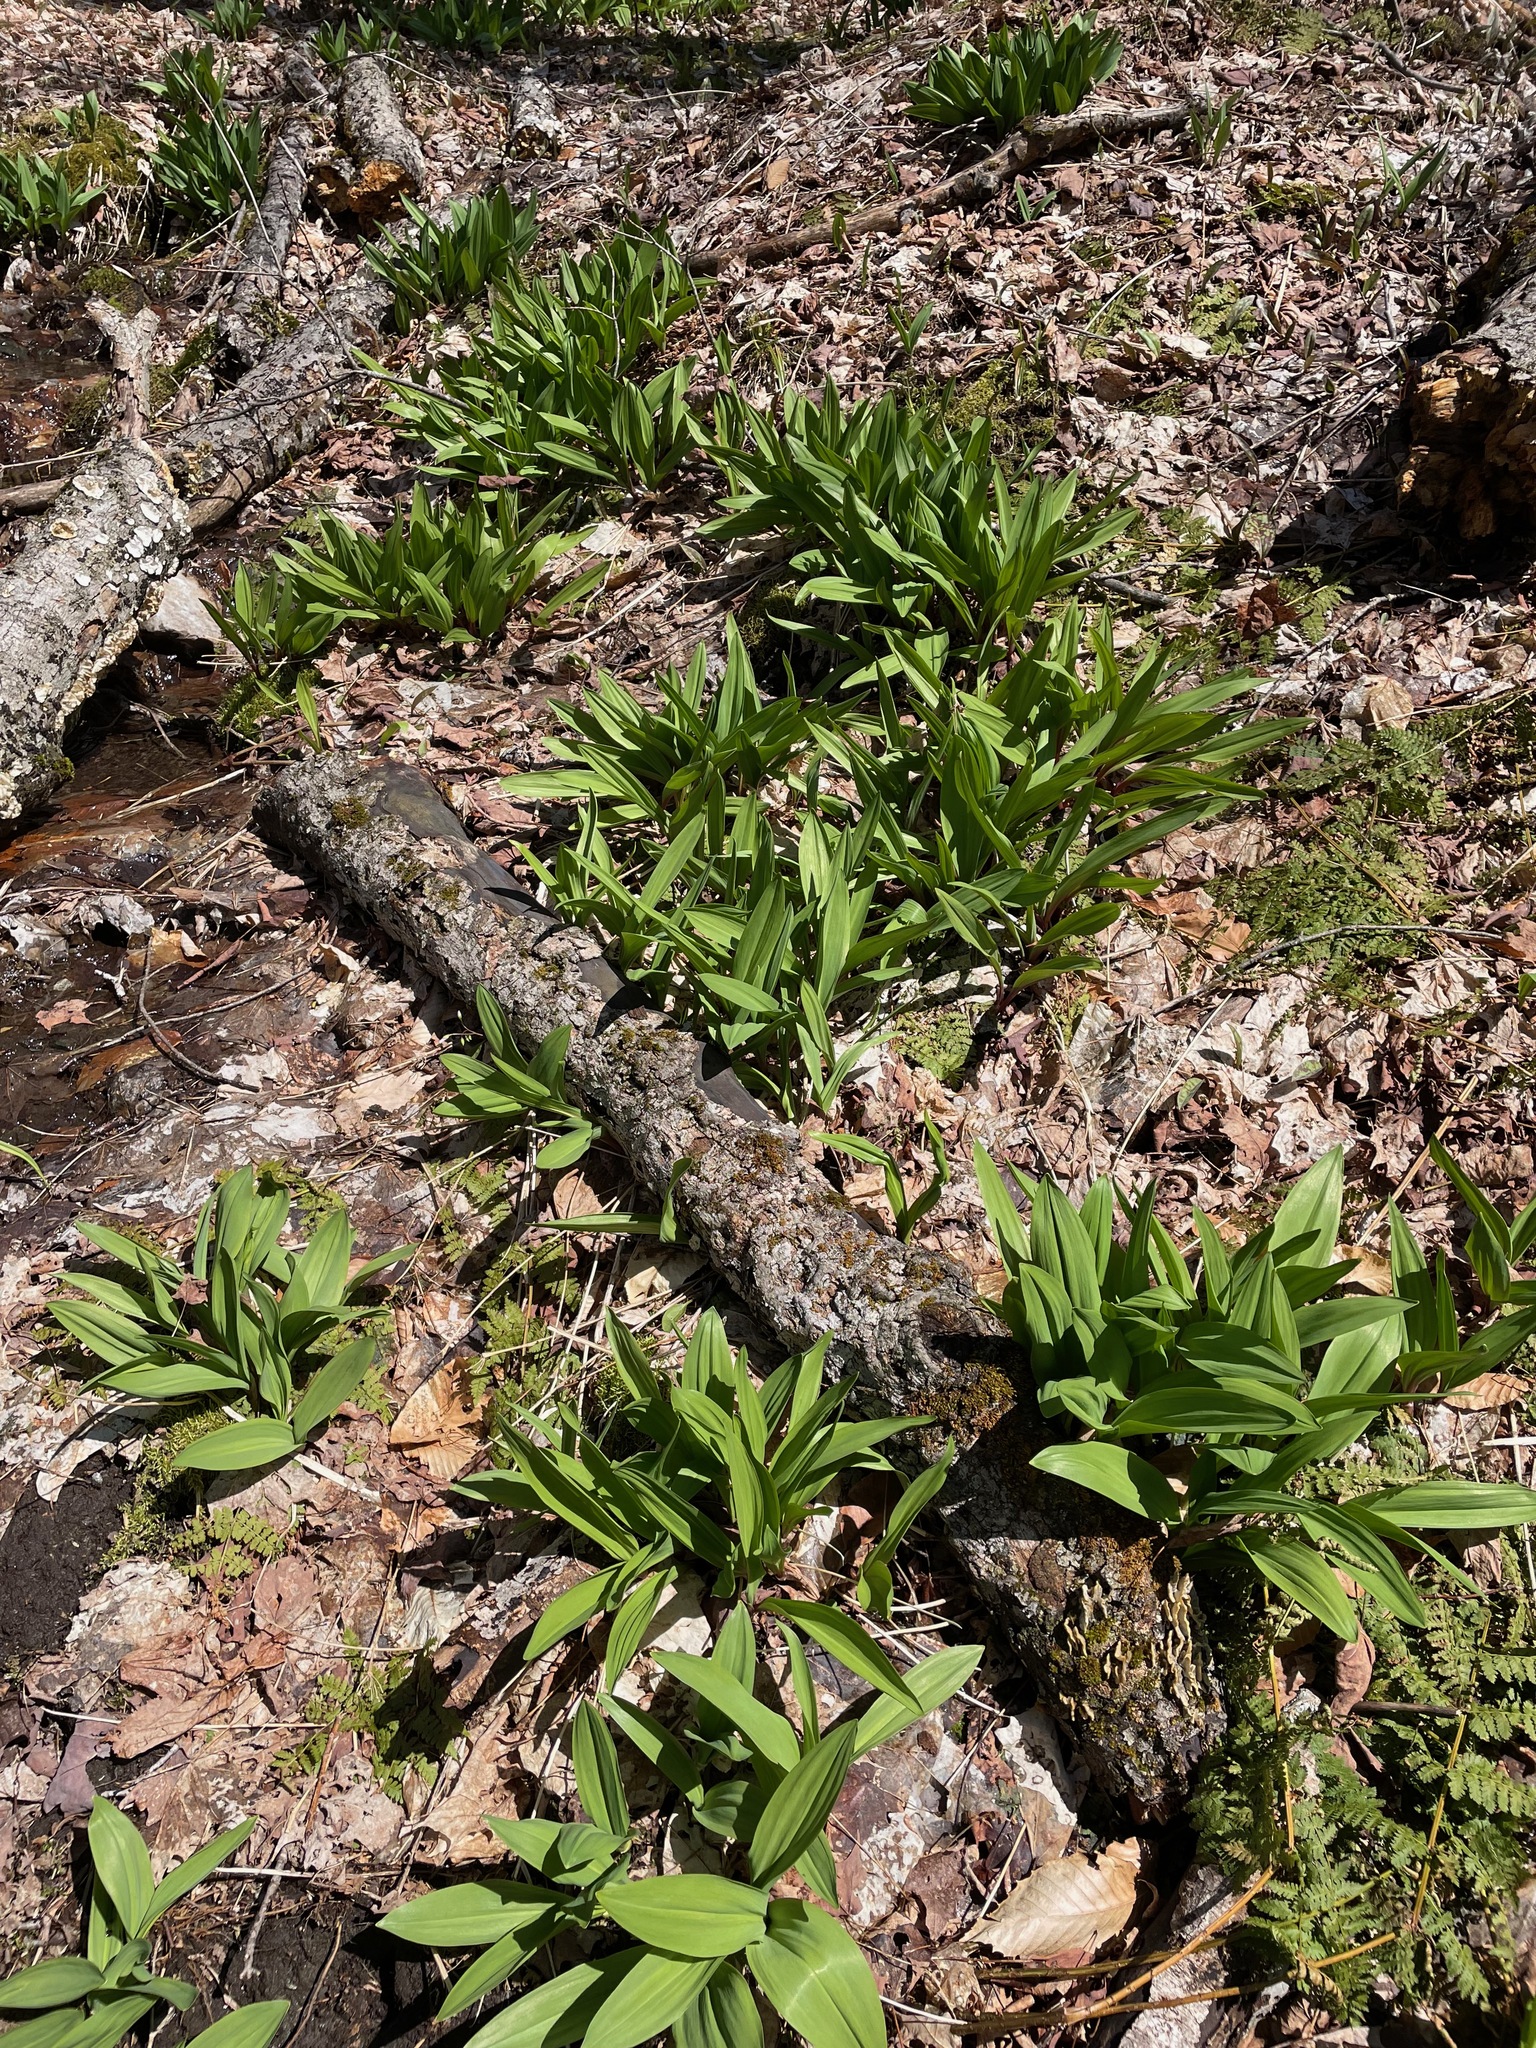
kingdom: Plantae
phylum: Tracheophyta
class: Liliopsida
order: Asparagales
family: Amaryllidaceae
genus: Allium
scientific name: Allium tricoccum
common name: Ramp
